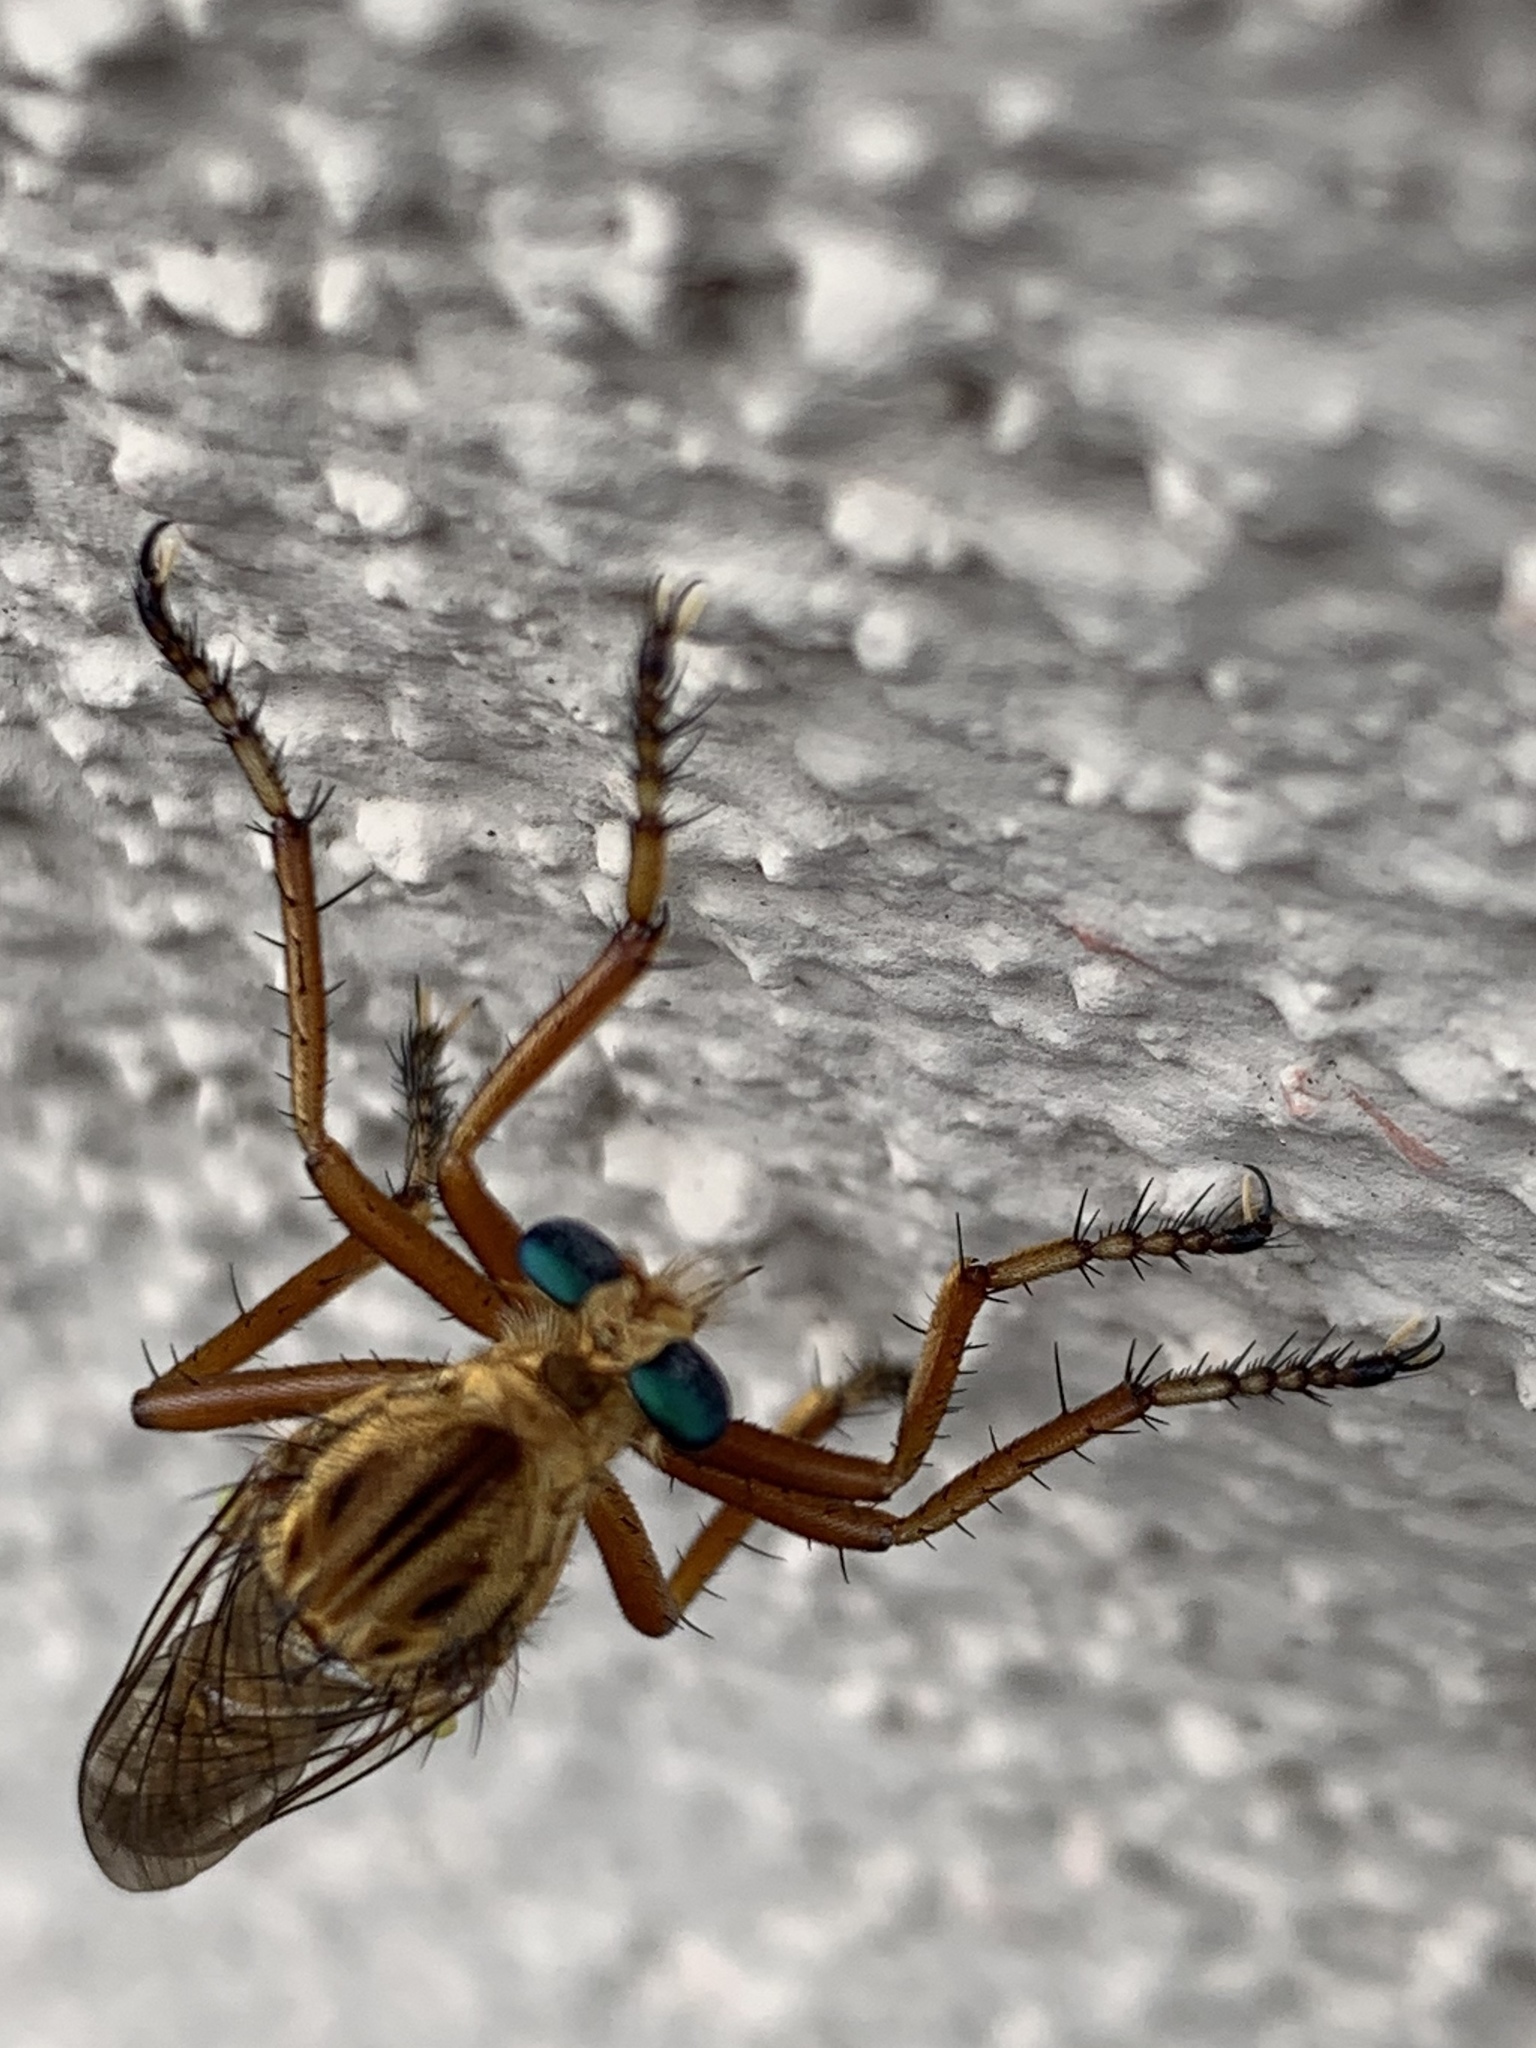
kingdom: Animalia
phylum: Arthropoda
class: Insecta
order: Diptera
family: Asilidae
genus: Diogmites
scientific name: Diogmites esuriens
